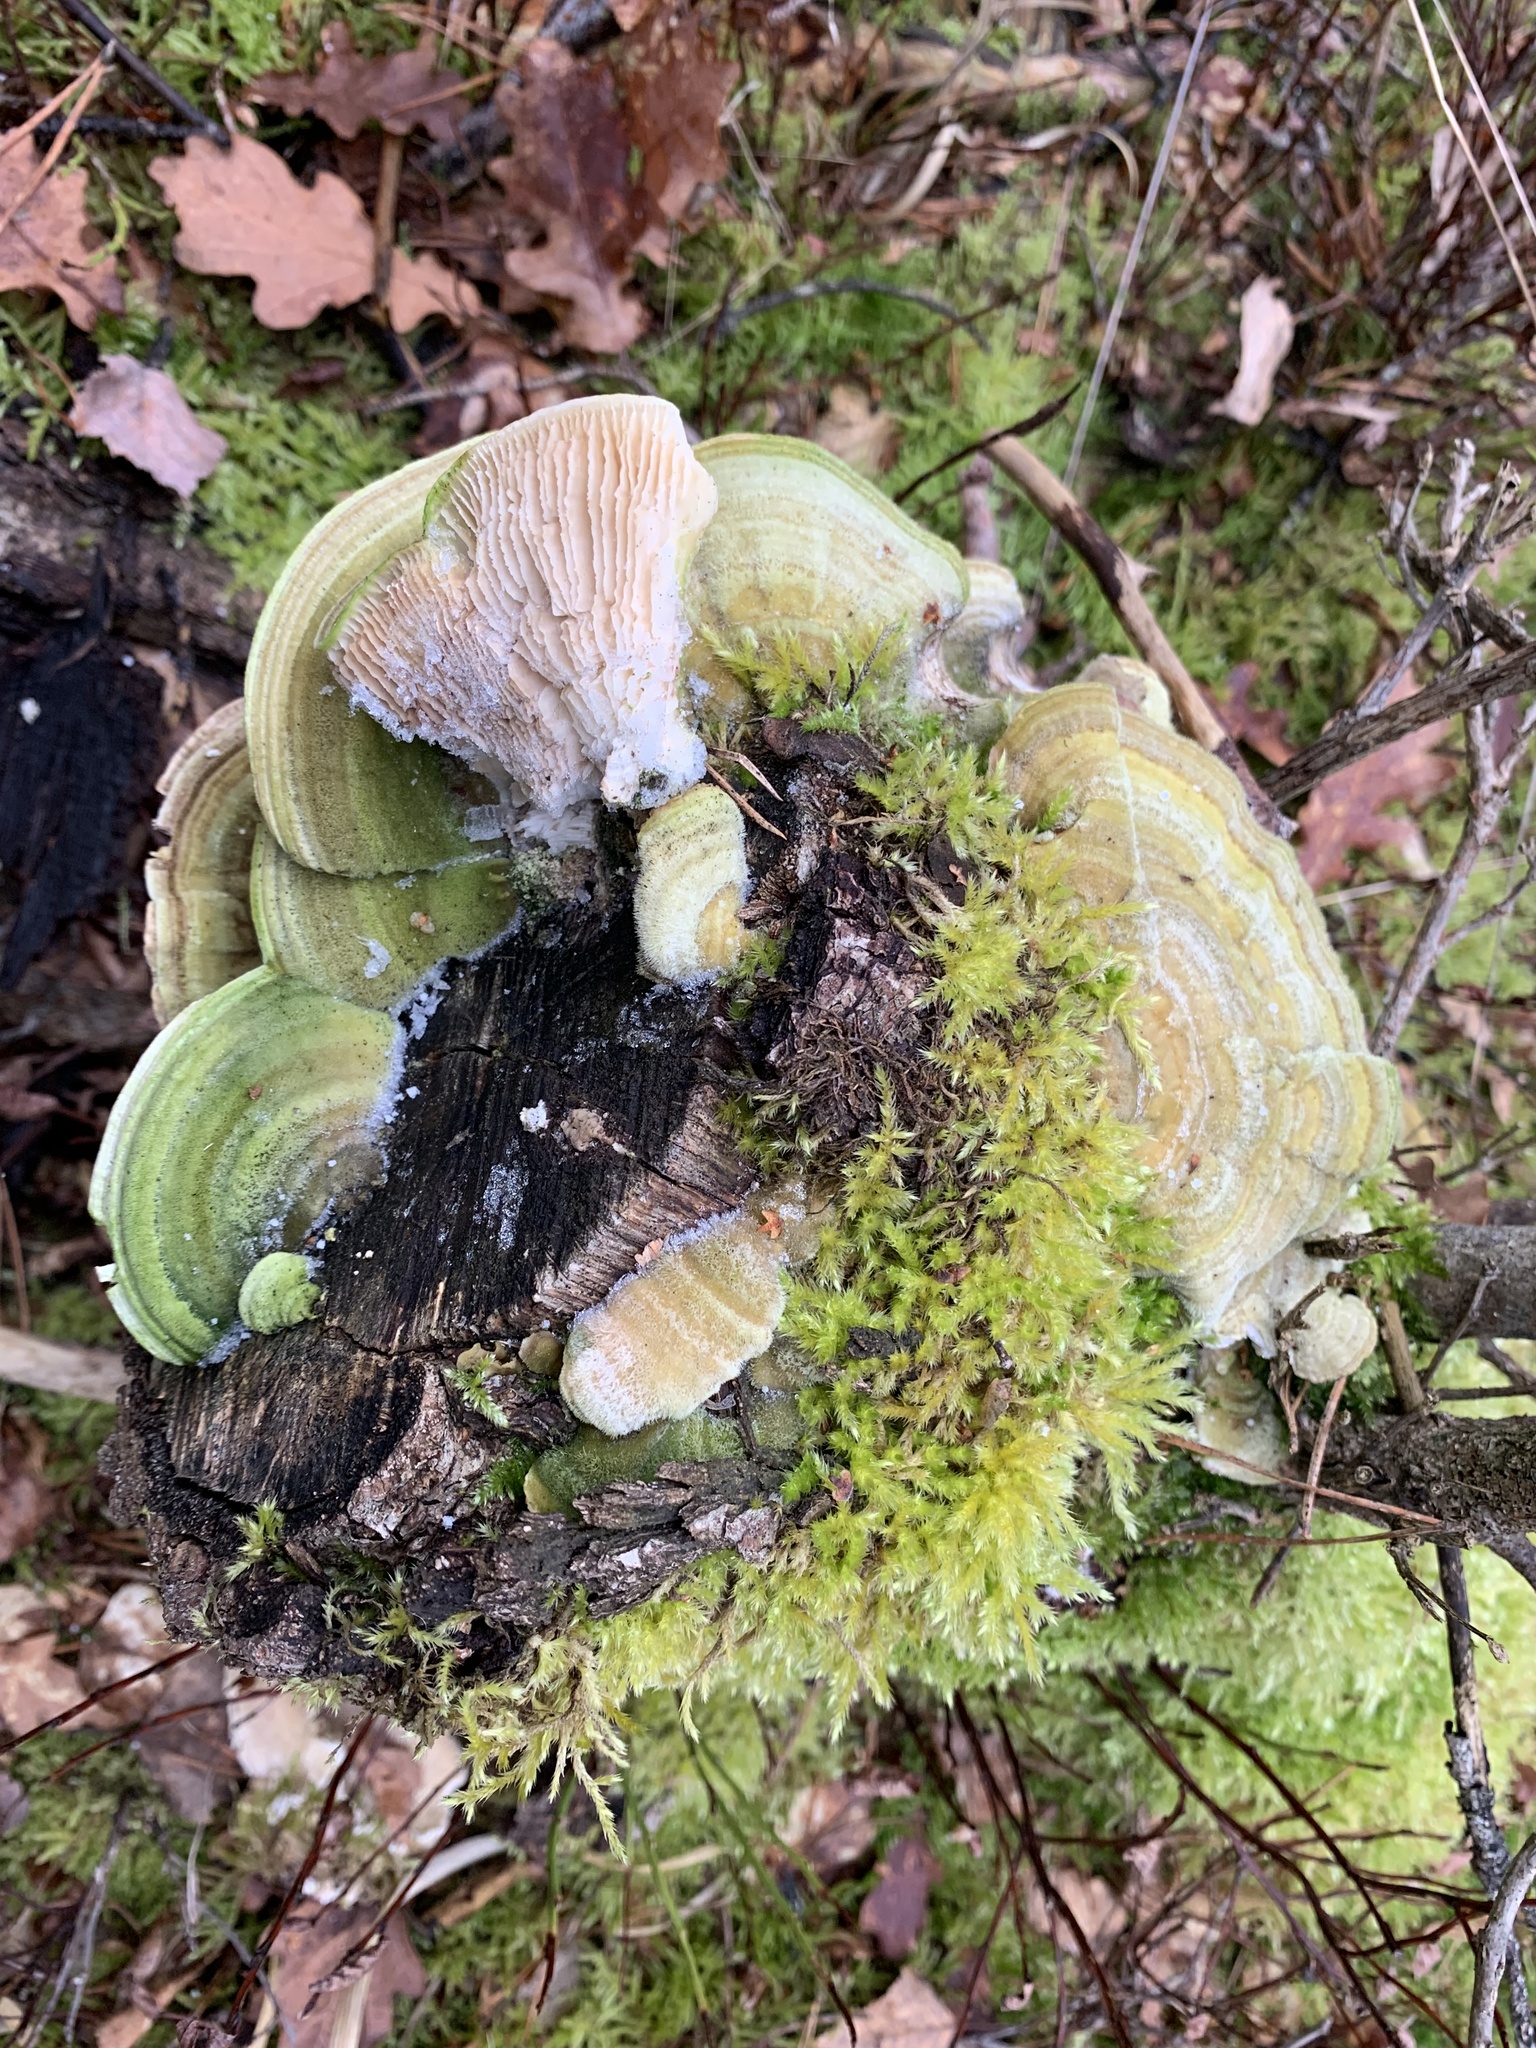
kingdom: Fungi
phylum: Basidiomycota
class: Agaricomycetes
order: Polyporales
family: Polyporaceae
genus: Lenzites
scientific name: Lenzites betulinus
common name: Birch mazegill
